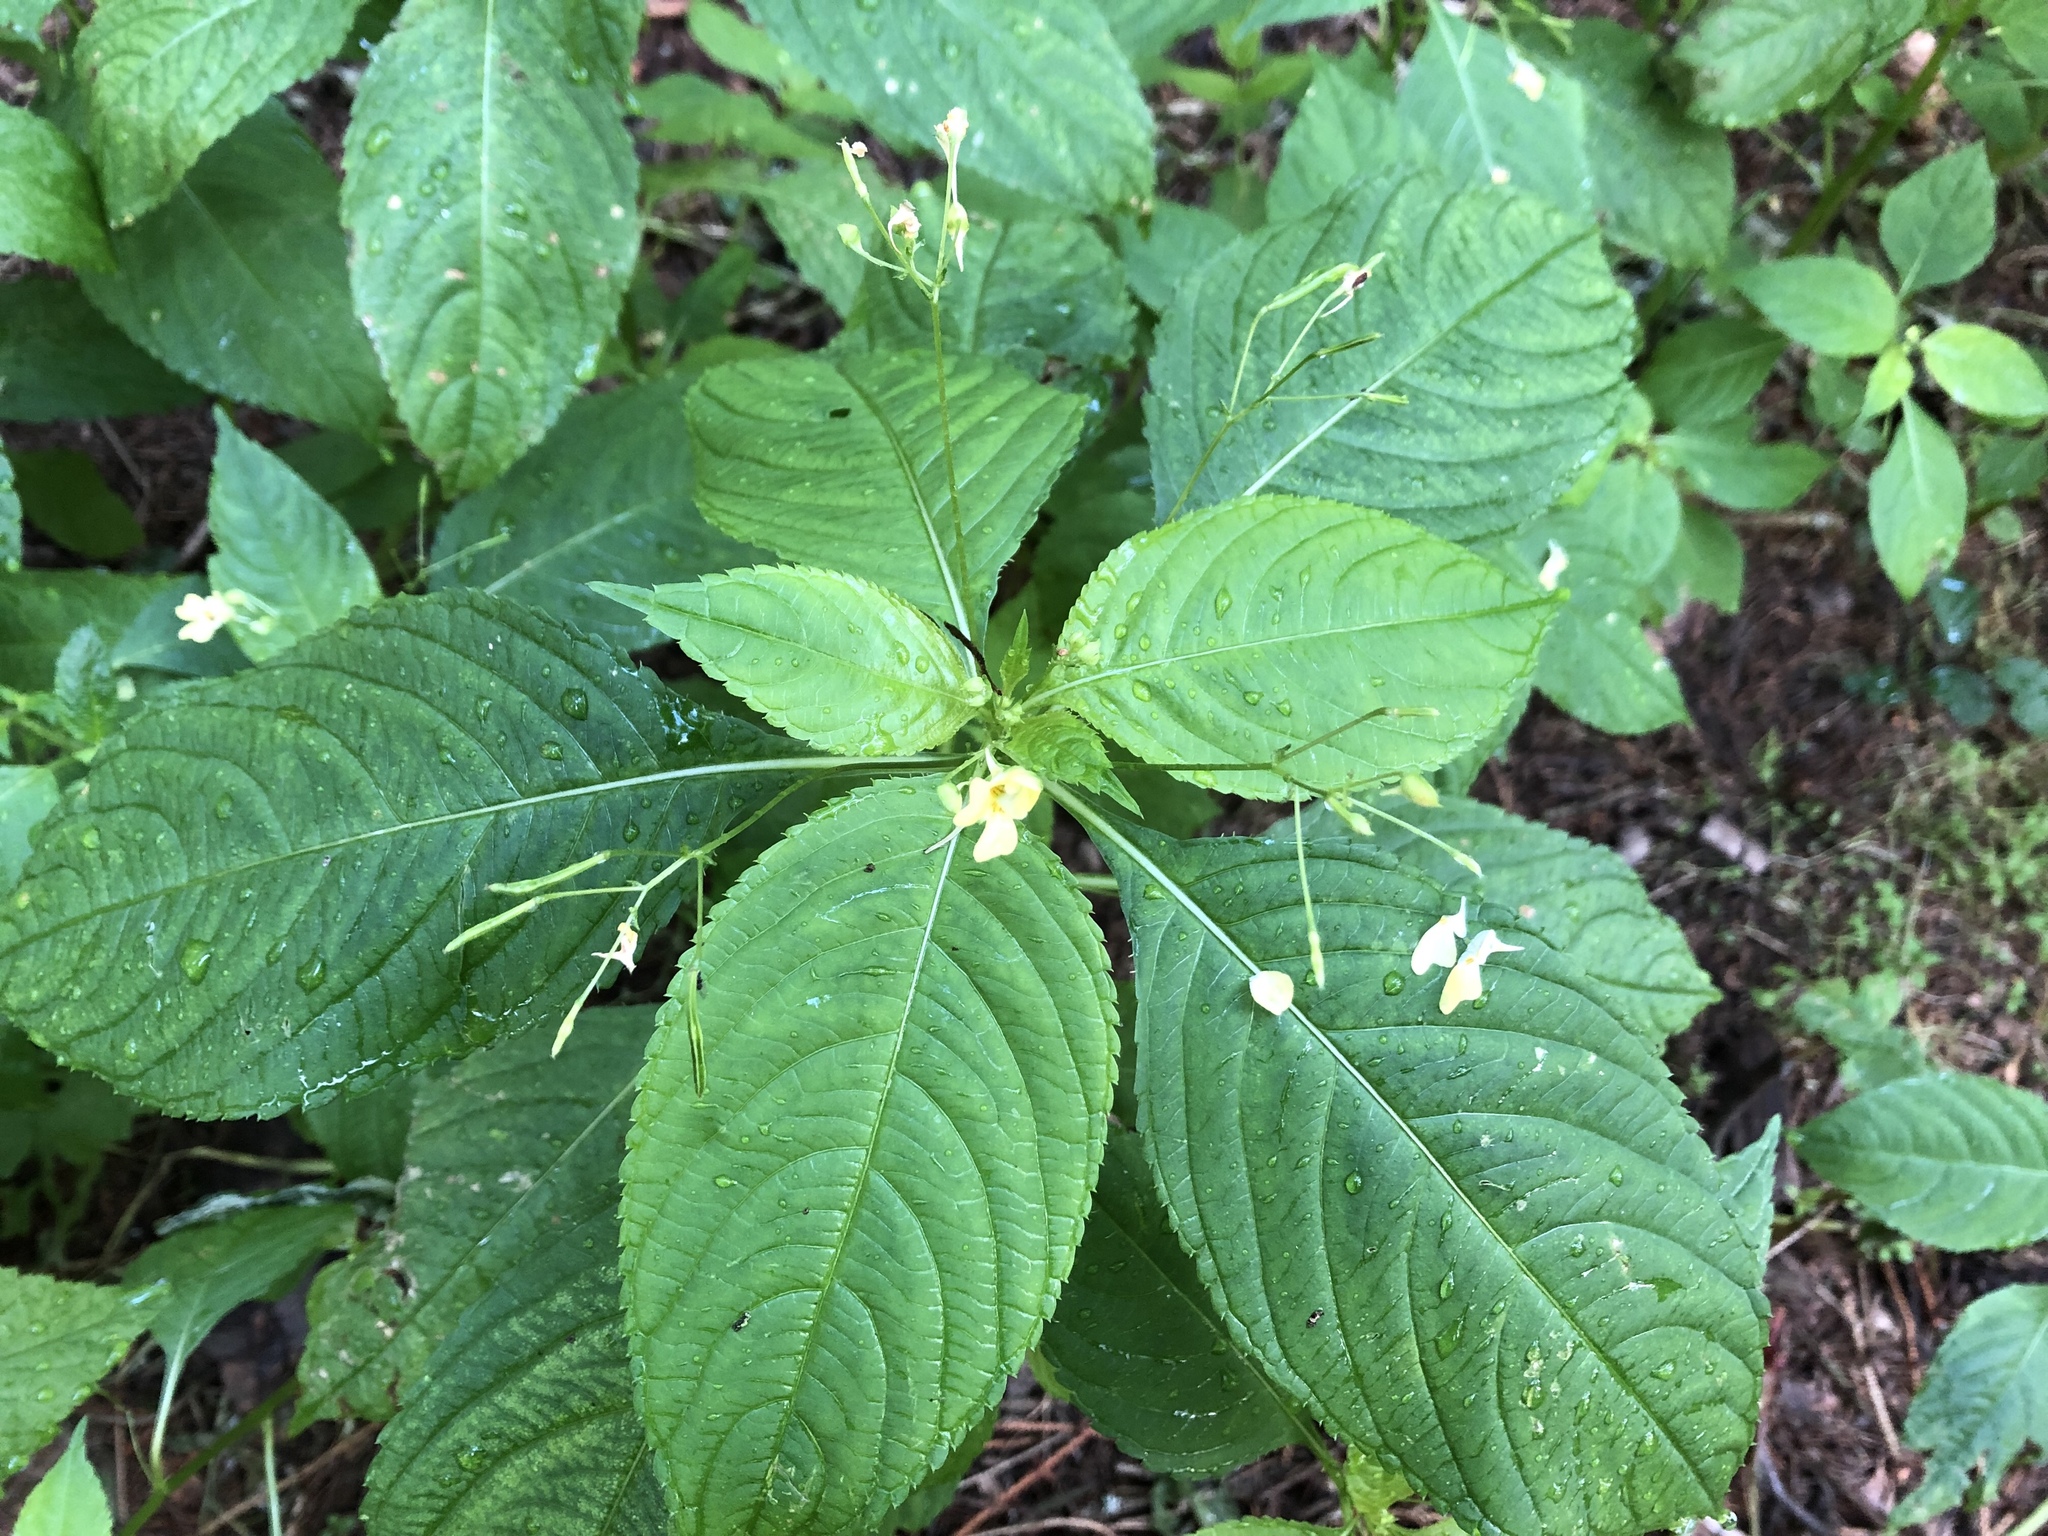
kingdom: Plantae
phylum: Tracheophyta
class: Magnoliopsida
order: Ericales
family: Balsaminaceae
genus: Impatiens
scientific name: Impatiens parviflora
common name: Small balsam
